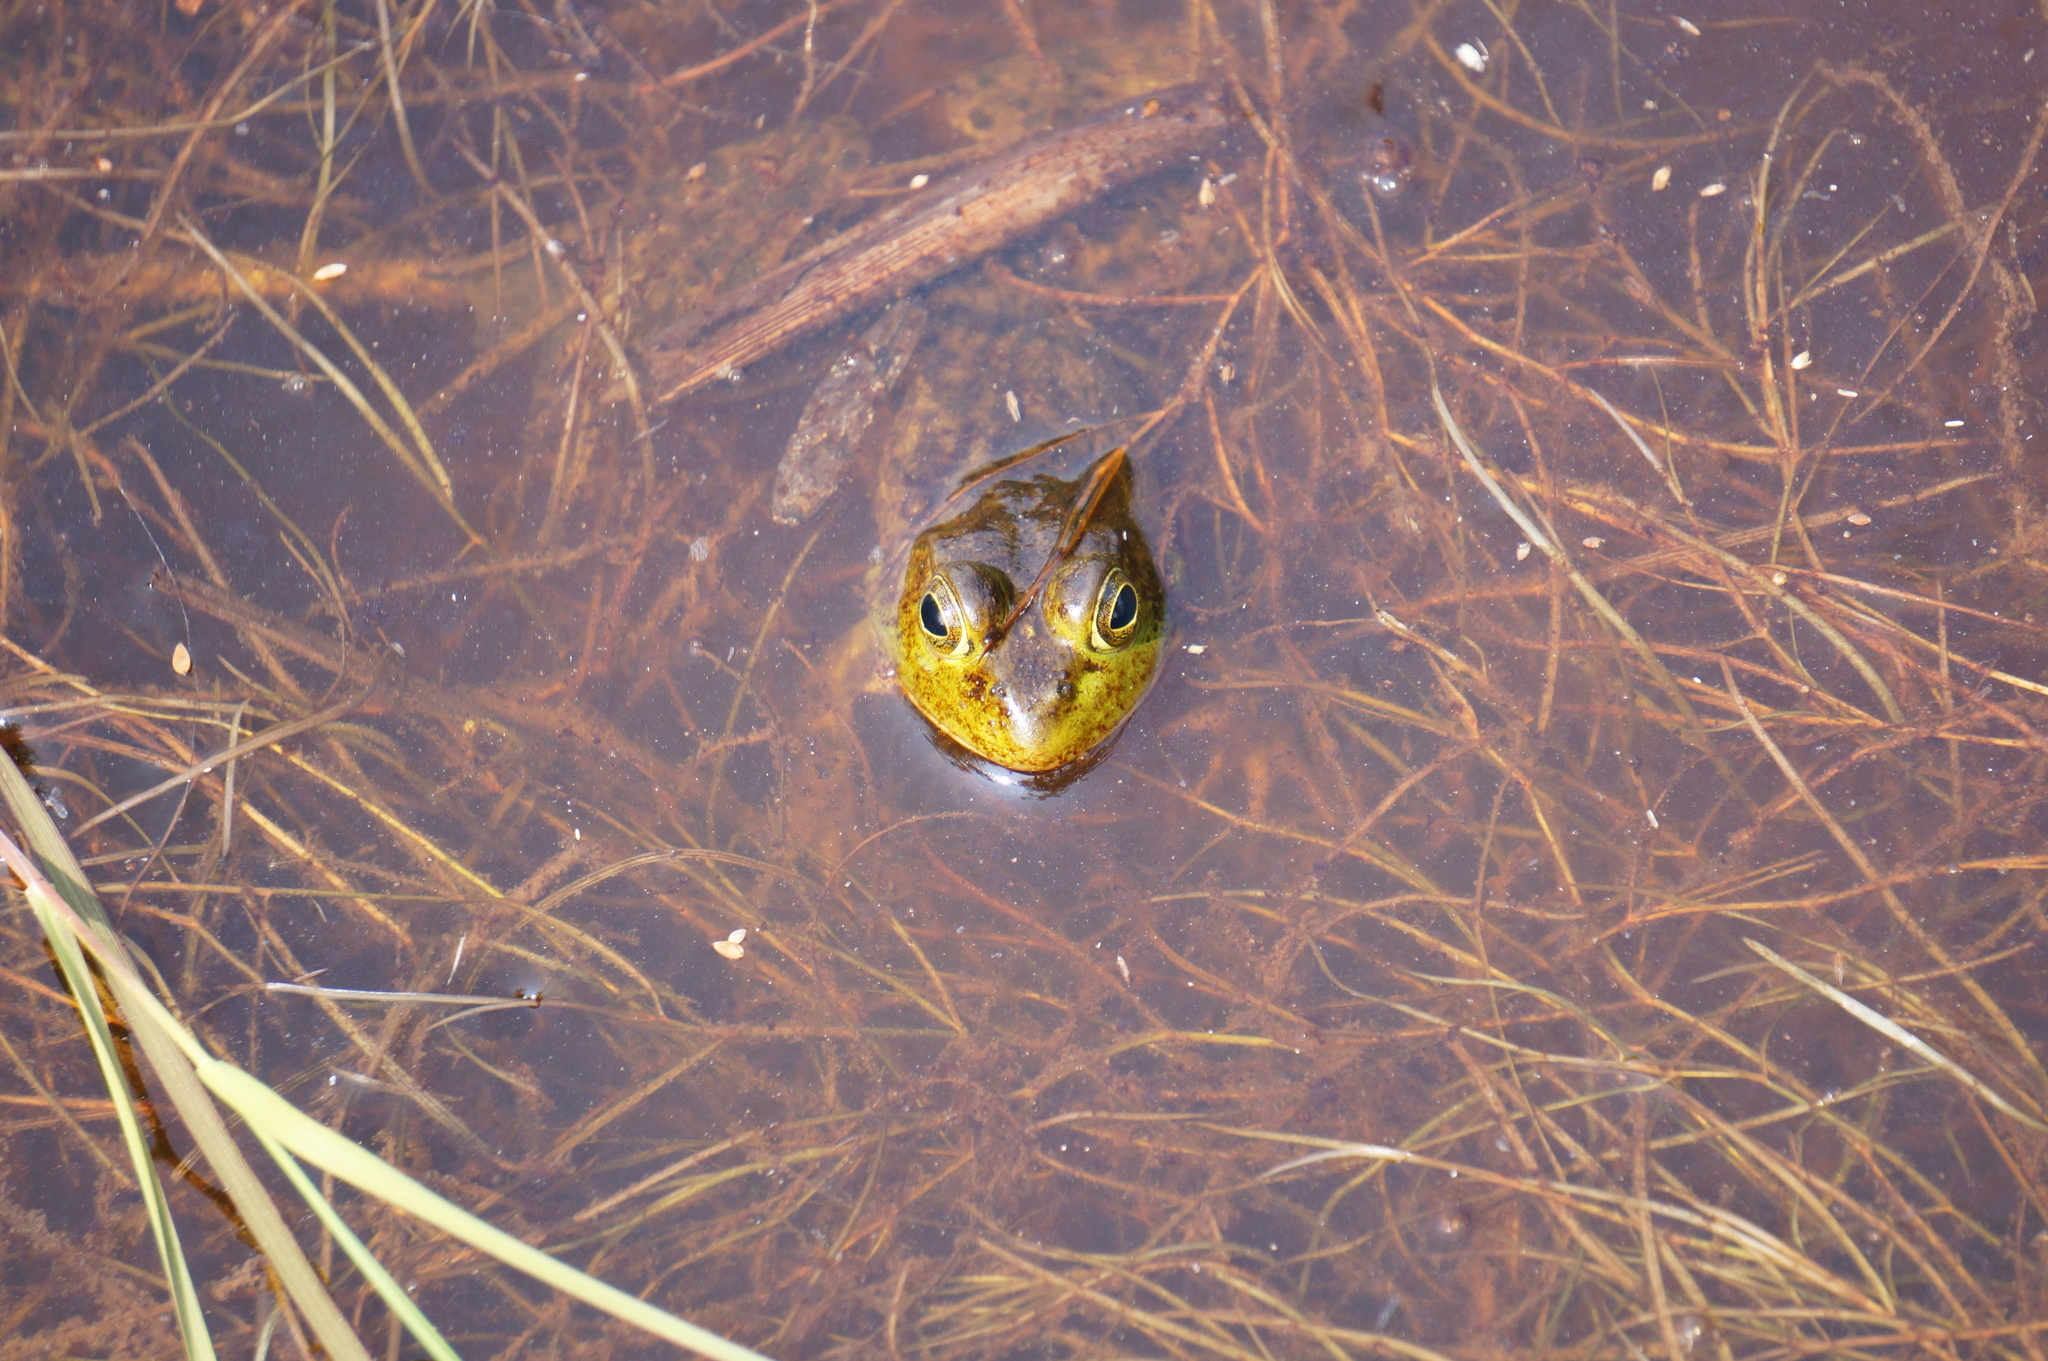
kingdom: Animalia
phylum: Chordata
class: Amphibia
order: Anura
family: Ranidae
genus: Lithobates
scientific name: Lithobates catesbeianus
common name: American bullfrog
